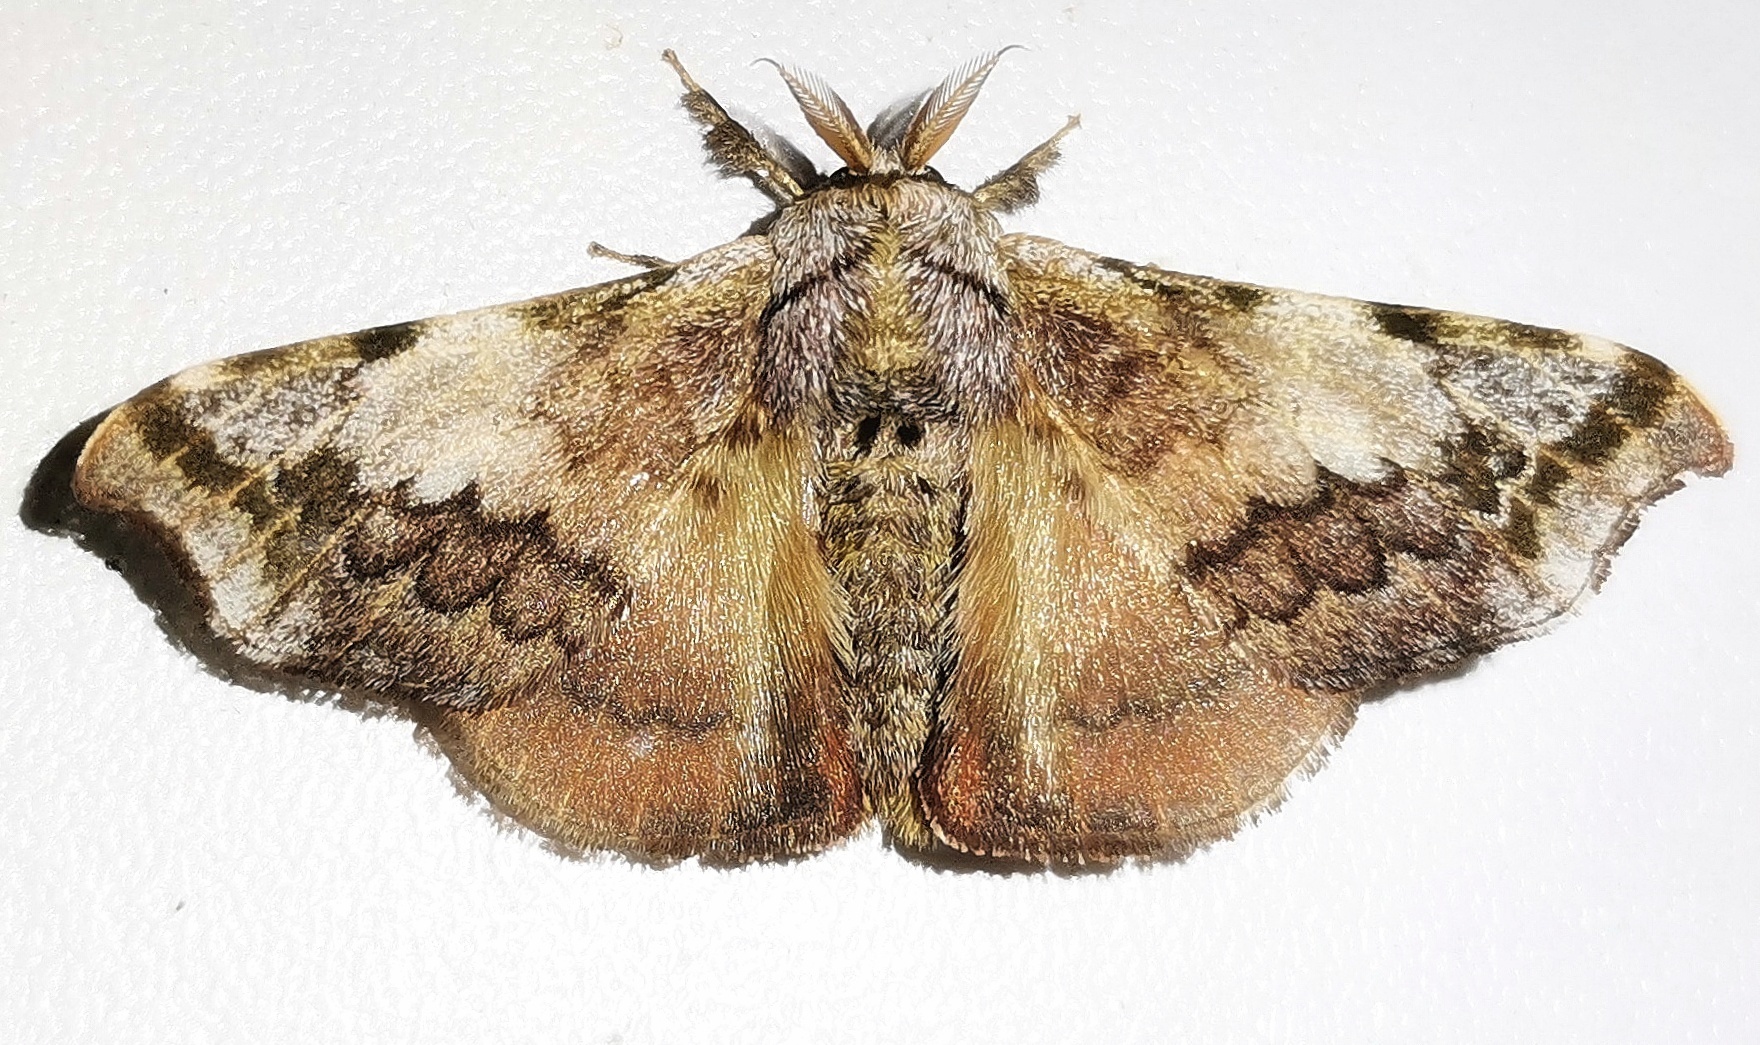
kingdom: Animalia
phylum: Arthropoda
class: Insecta
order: Lepidoptera
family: Bombycidae
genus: Quentalia
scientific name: Quentalia ephonia
